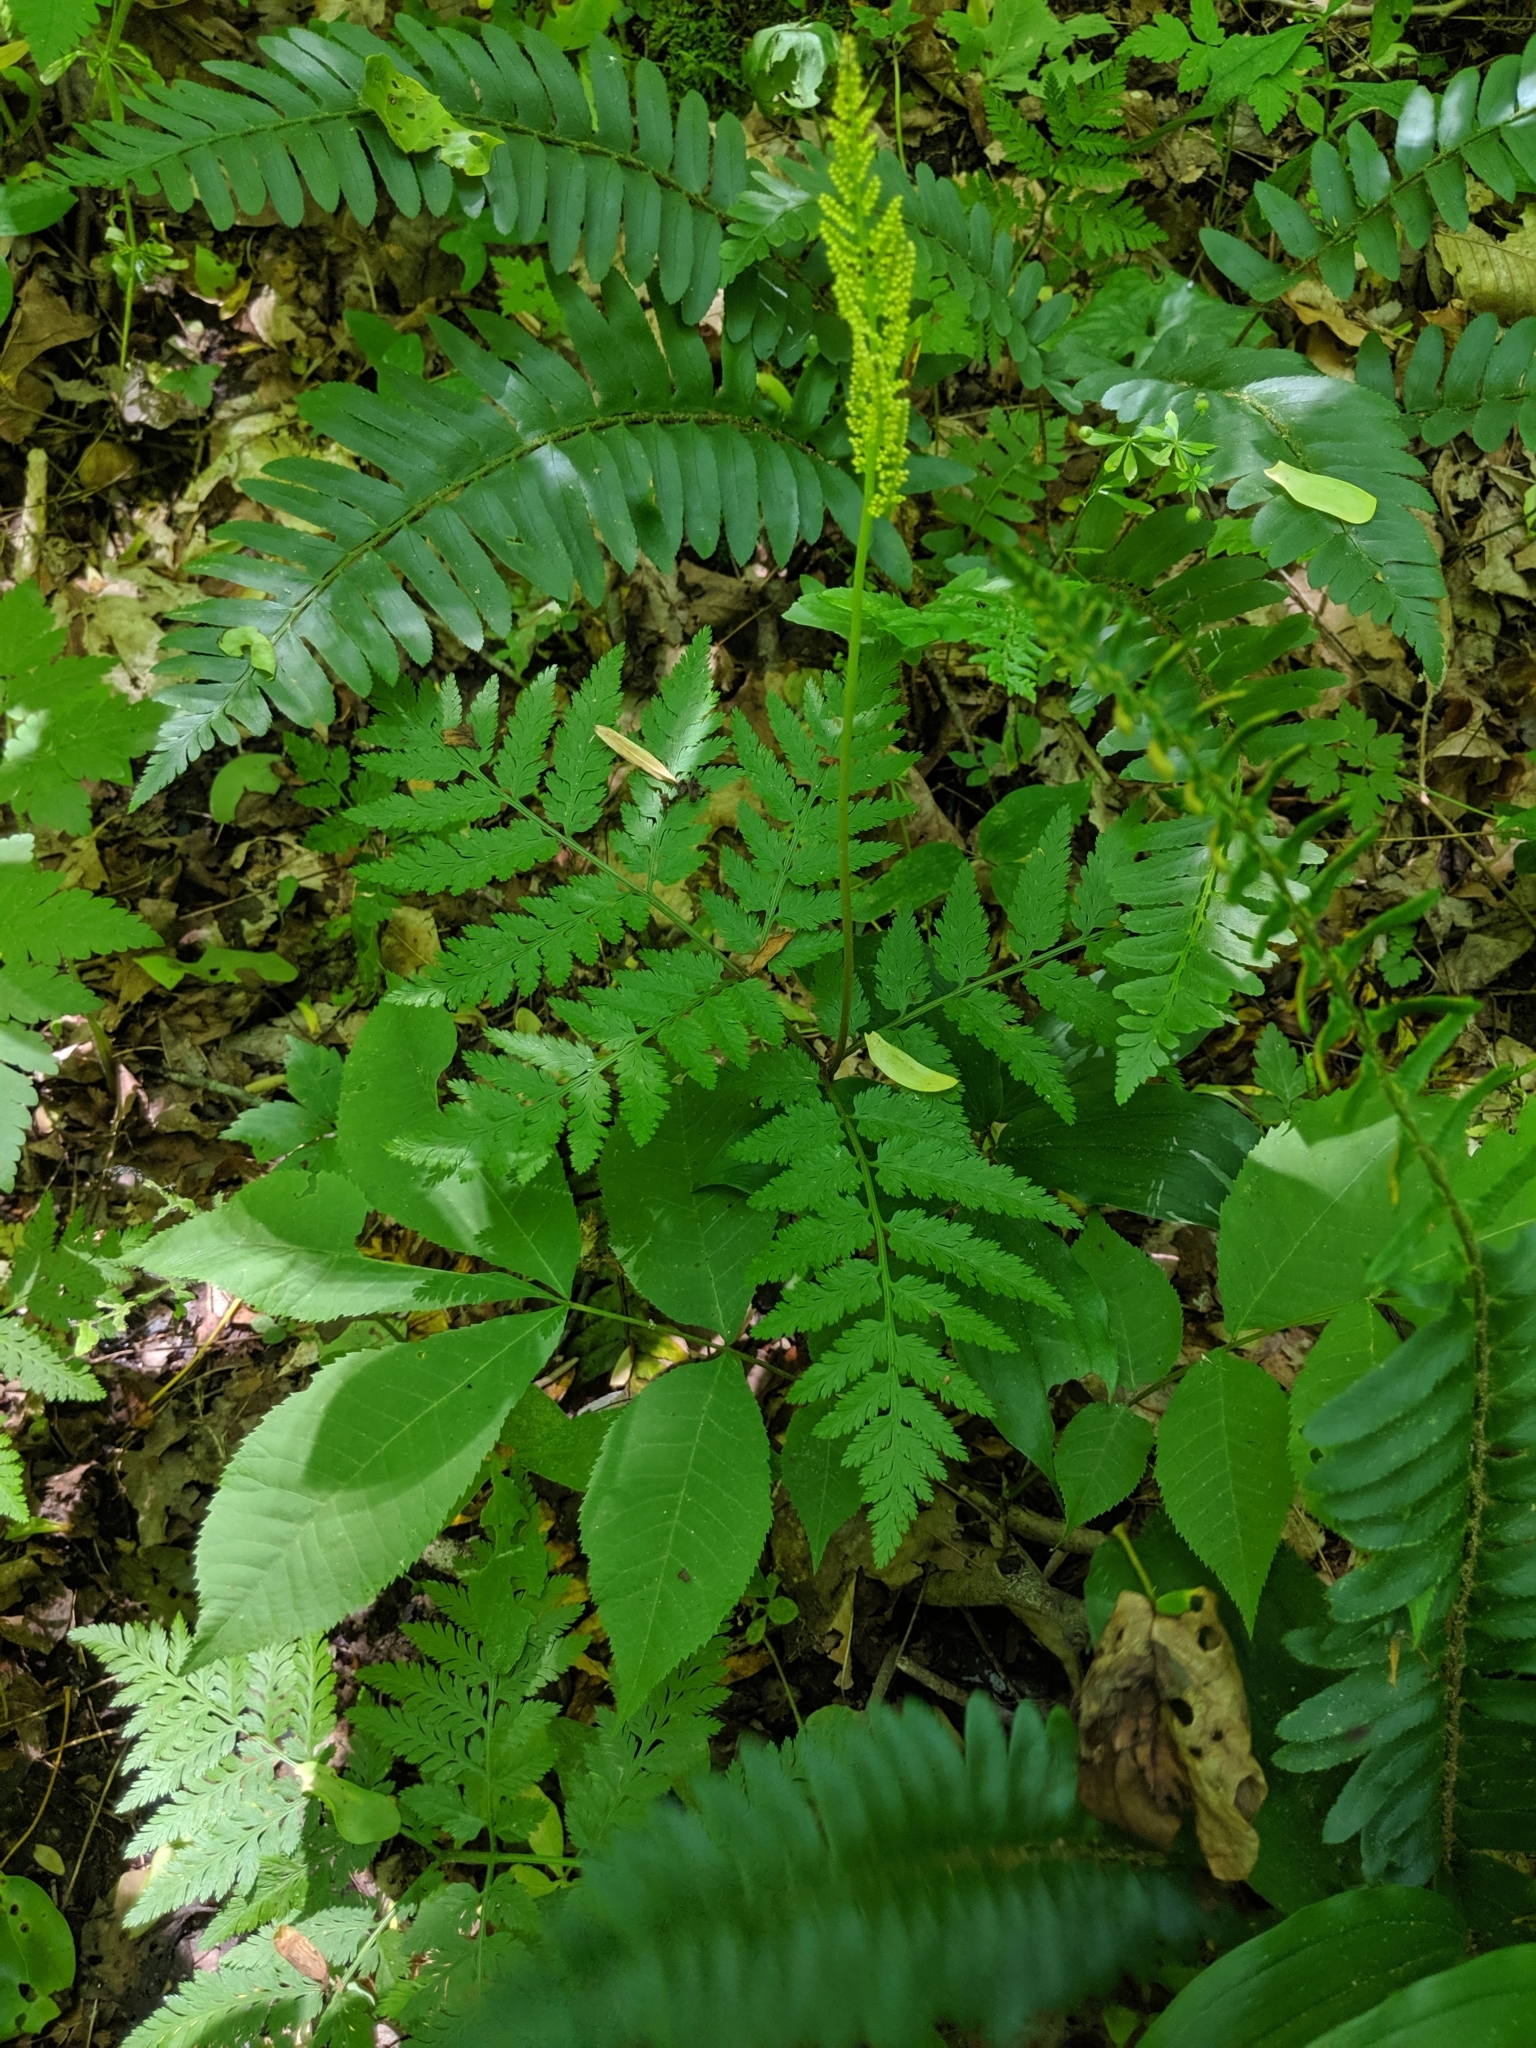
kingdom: Plantae
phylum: Tracheophyta
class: Polypodiopsida
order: Ophioglossales
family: Ophioglossaceae
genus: Botrypus
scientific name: Botrypus virginianus
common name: Common grapefern
